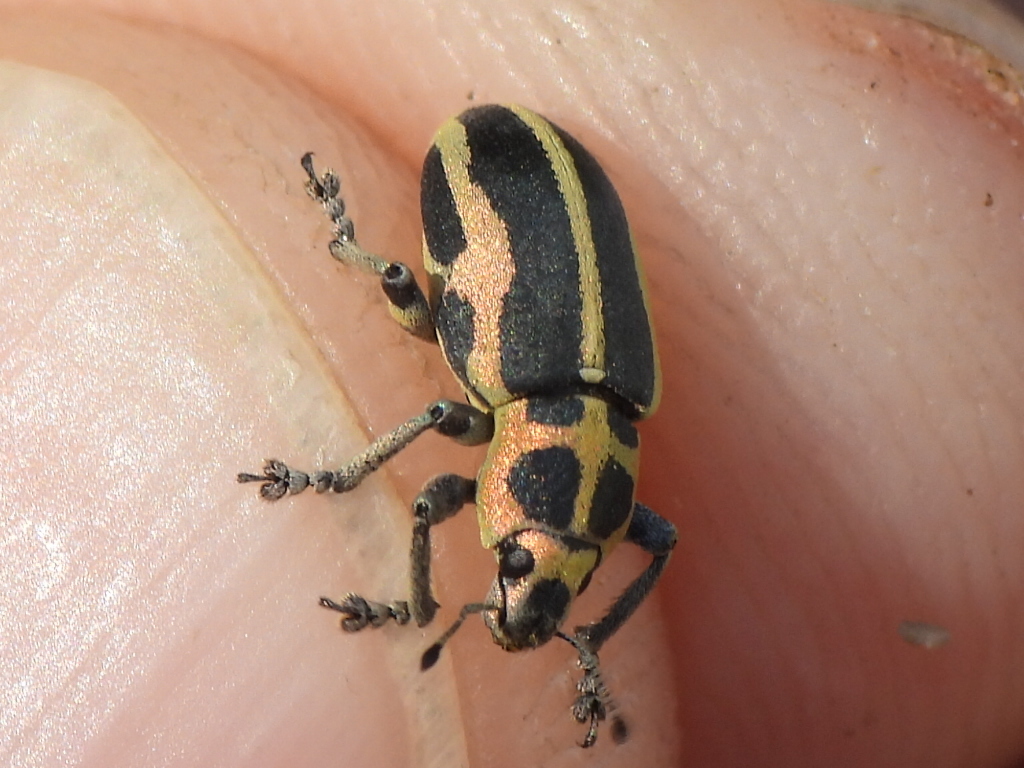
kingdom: Animalia
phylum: Arthropoda
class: Insecta
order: Coleoptera
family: Curculionidae
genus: Eudiagogus
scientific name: Eudiagogus pulcher
